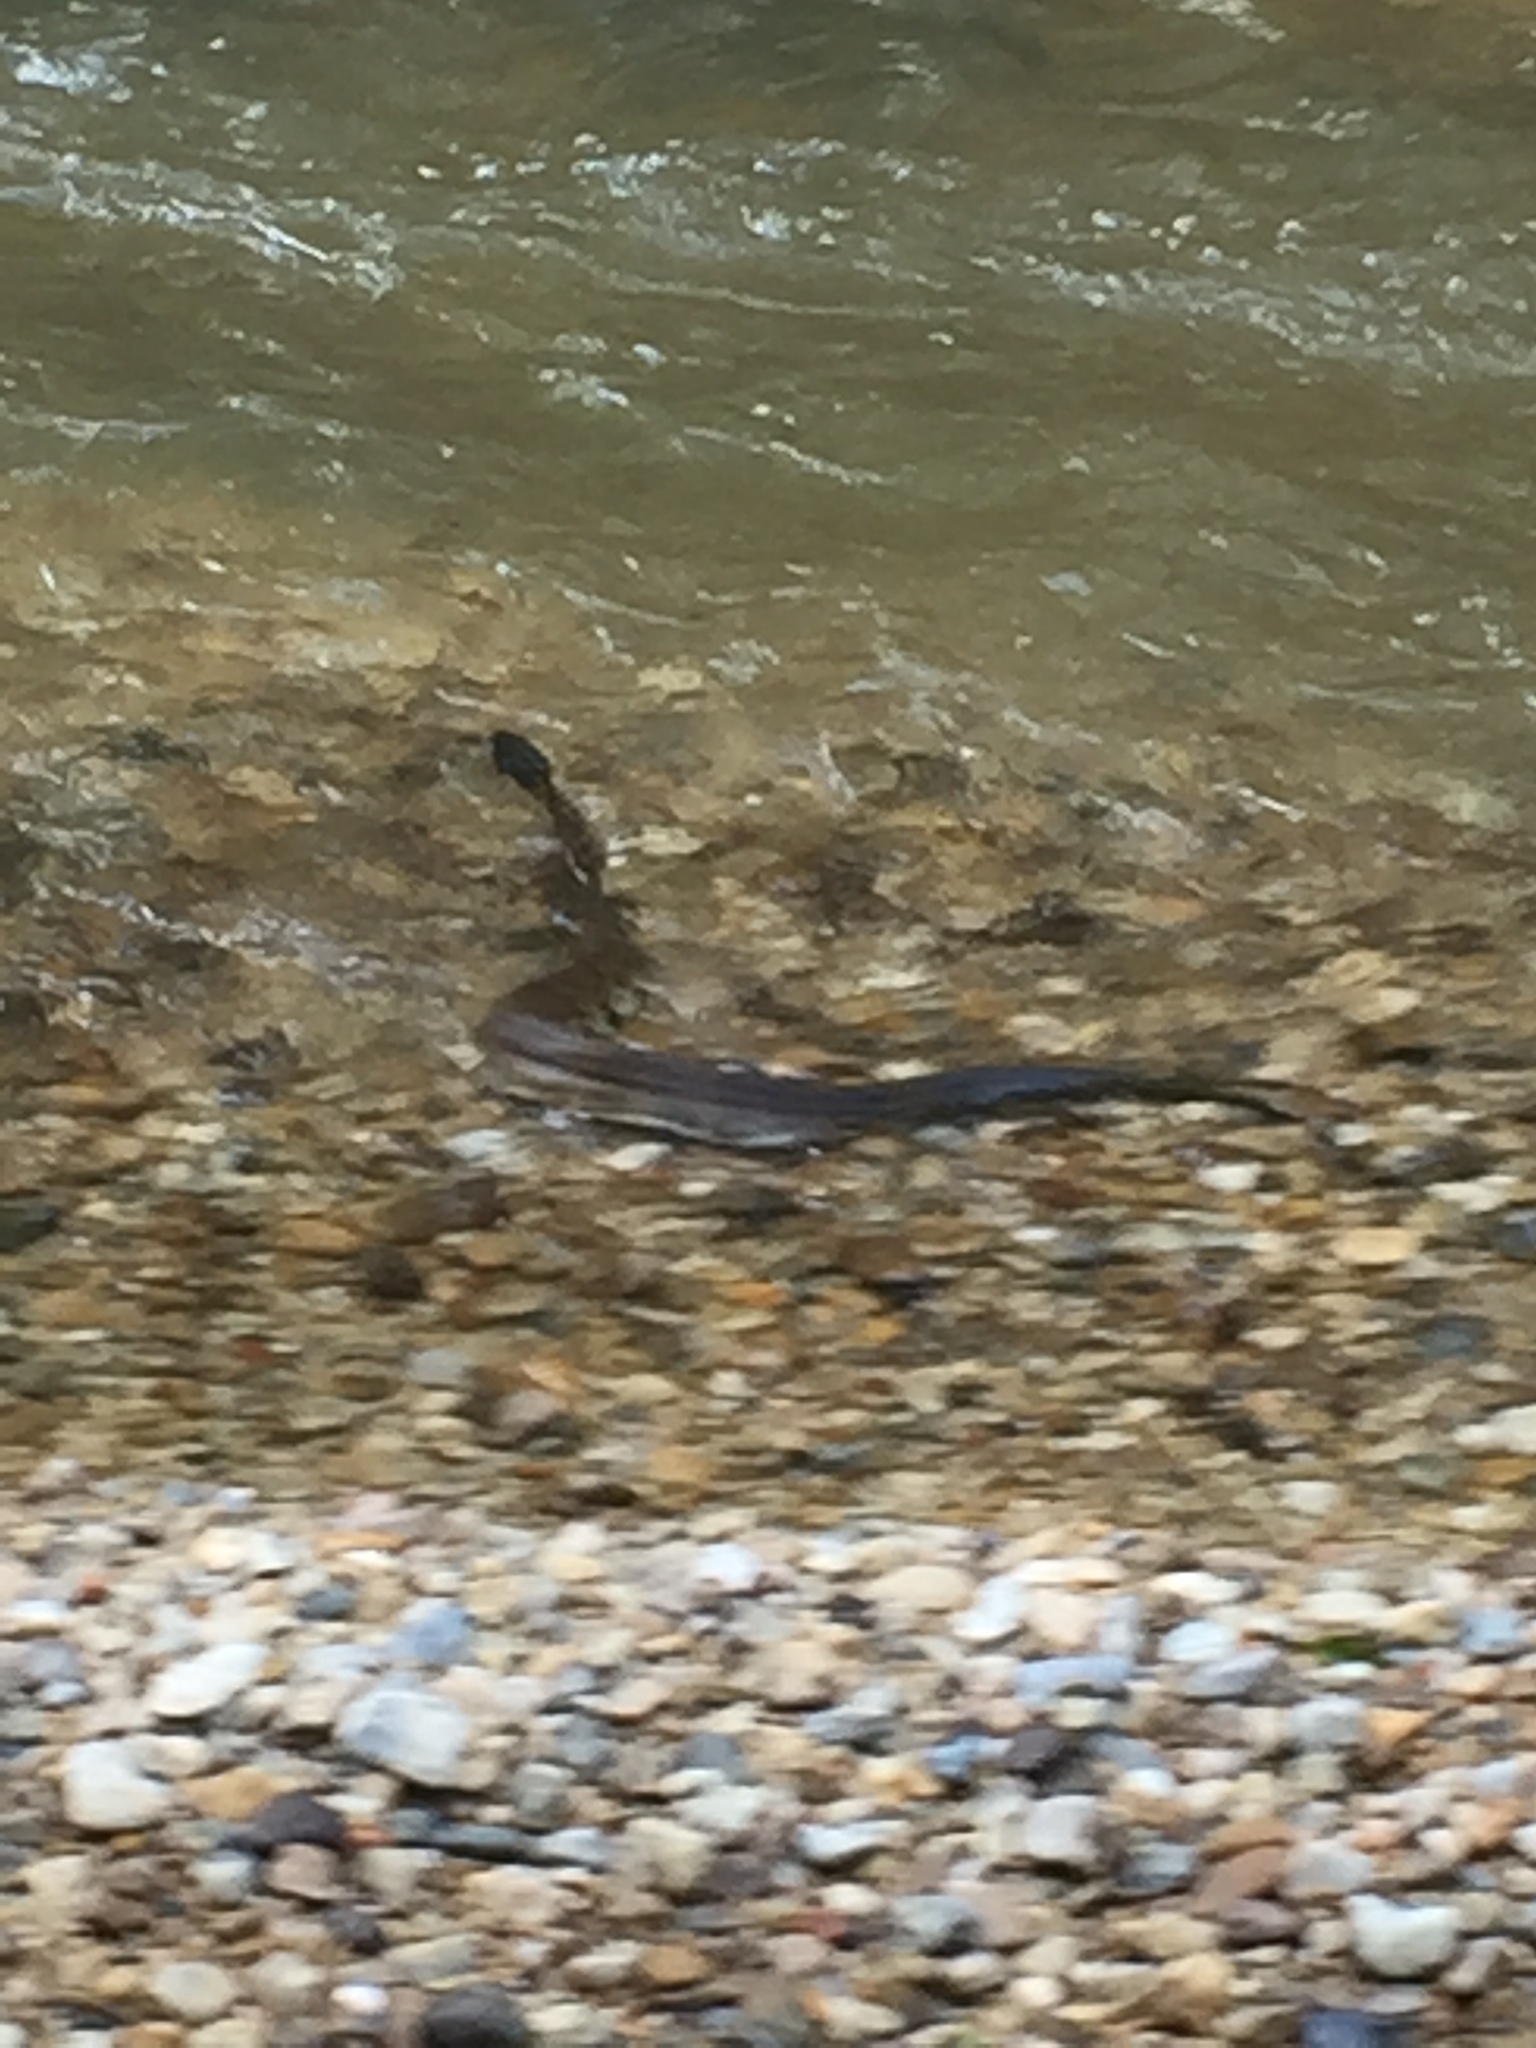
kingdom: Animalia
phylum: Chordata
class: Squamata
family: Viperidae
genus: Agkistrodon
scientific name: Agkistrodon piscivorus
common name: Cottonmouth
